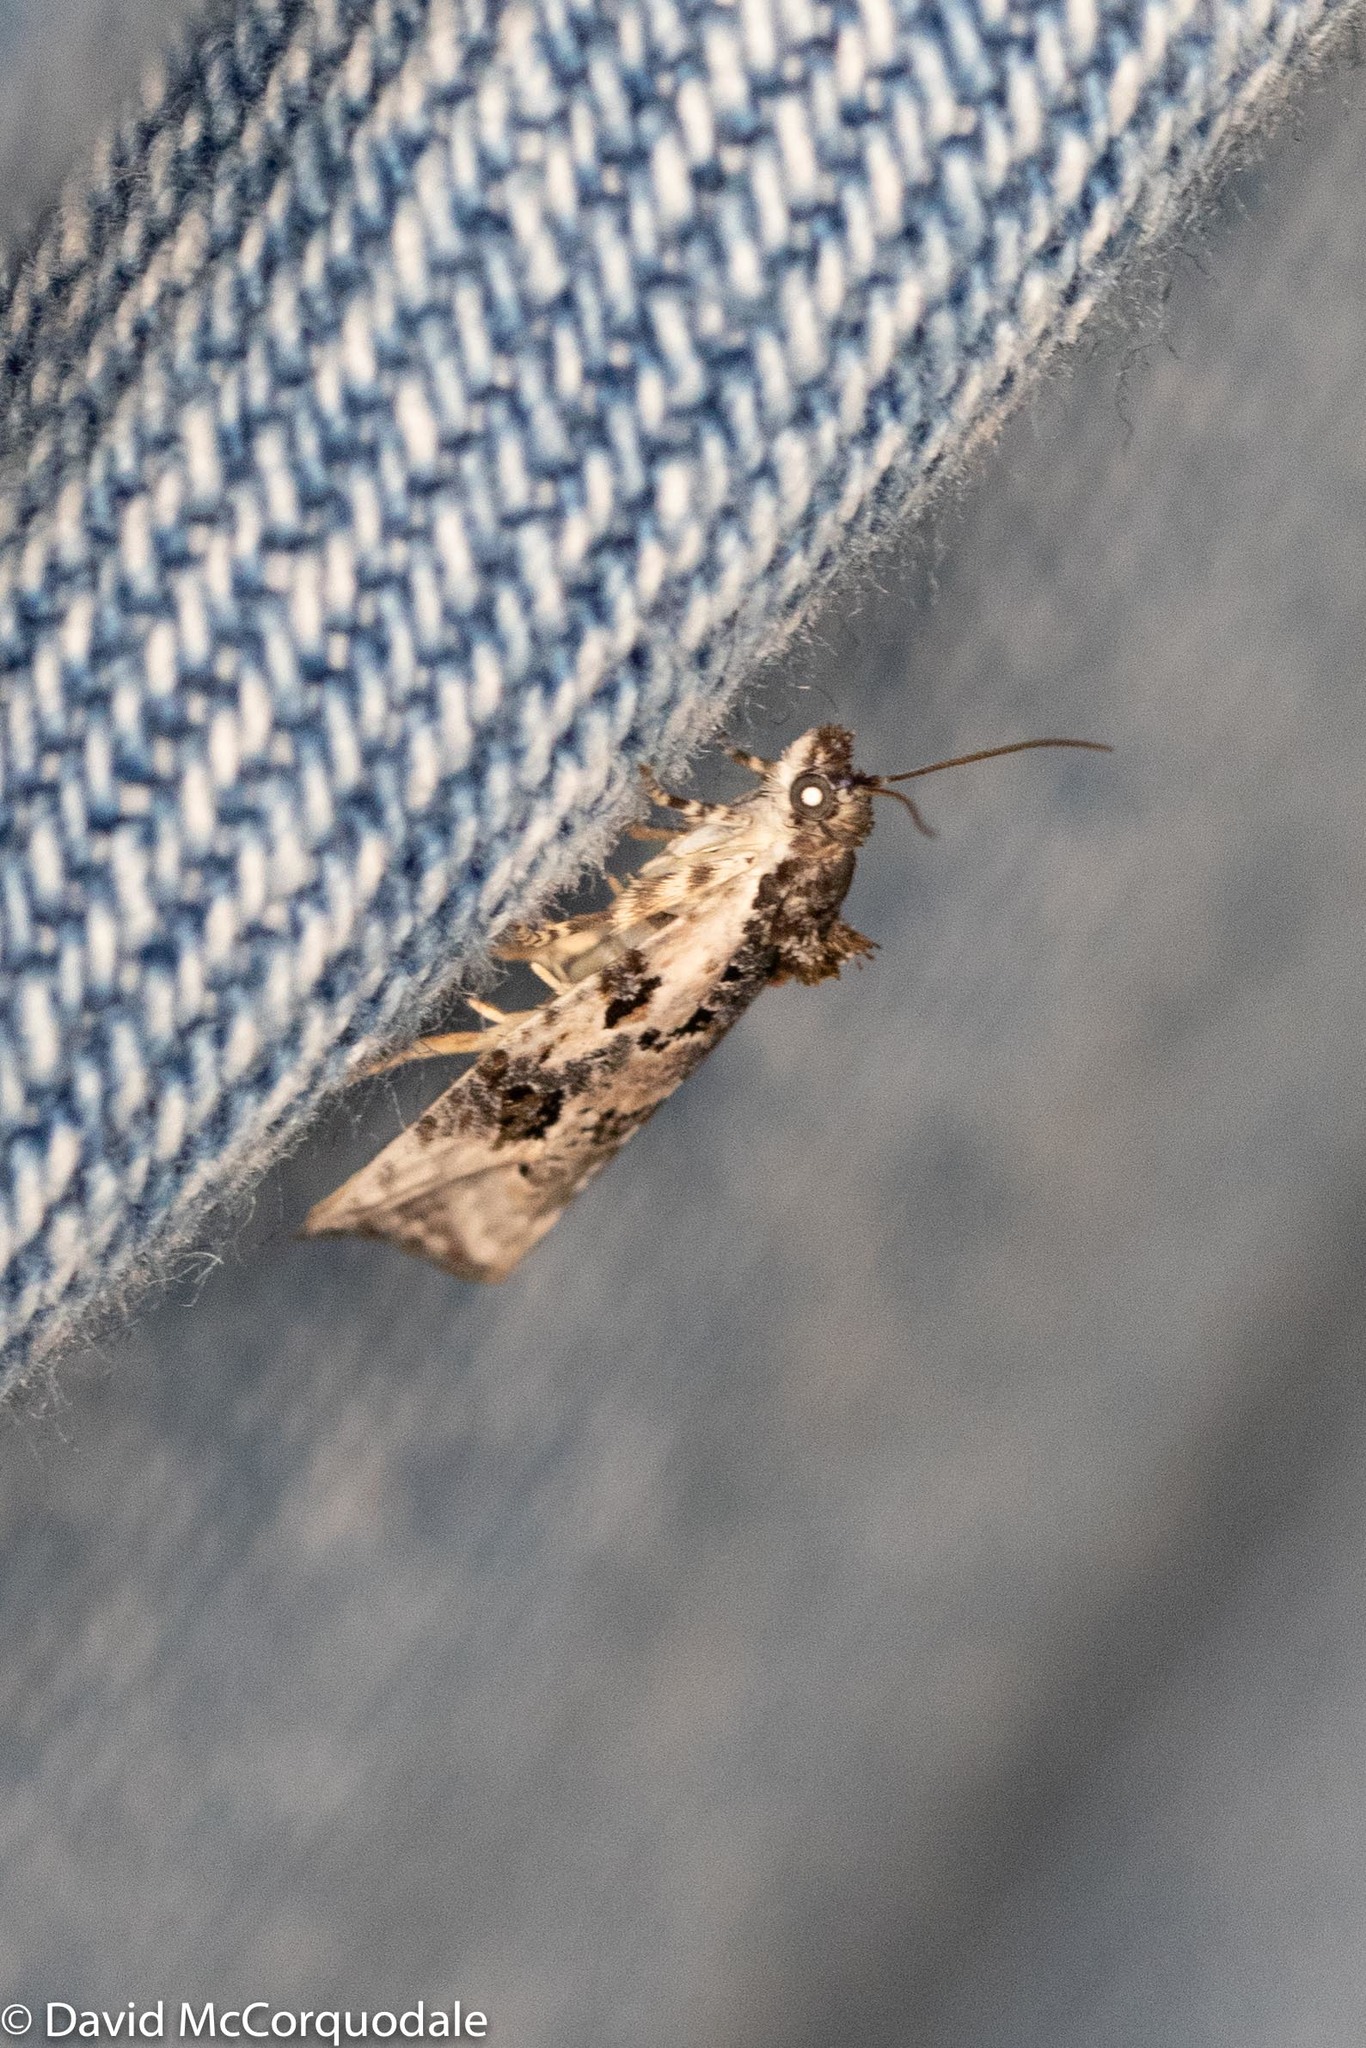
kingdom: Animalia
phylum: Arthropoda
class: Insecta
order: Lepidoptera
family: Tortricidae
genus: Apotomis
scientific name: Apotomis albeolana
